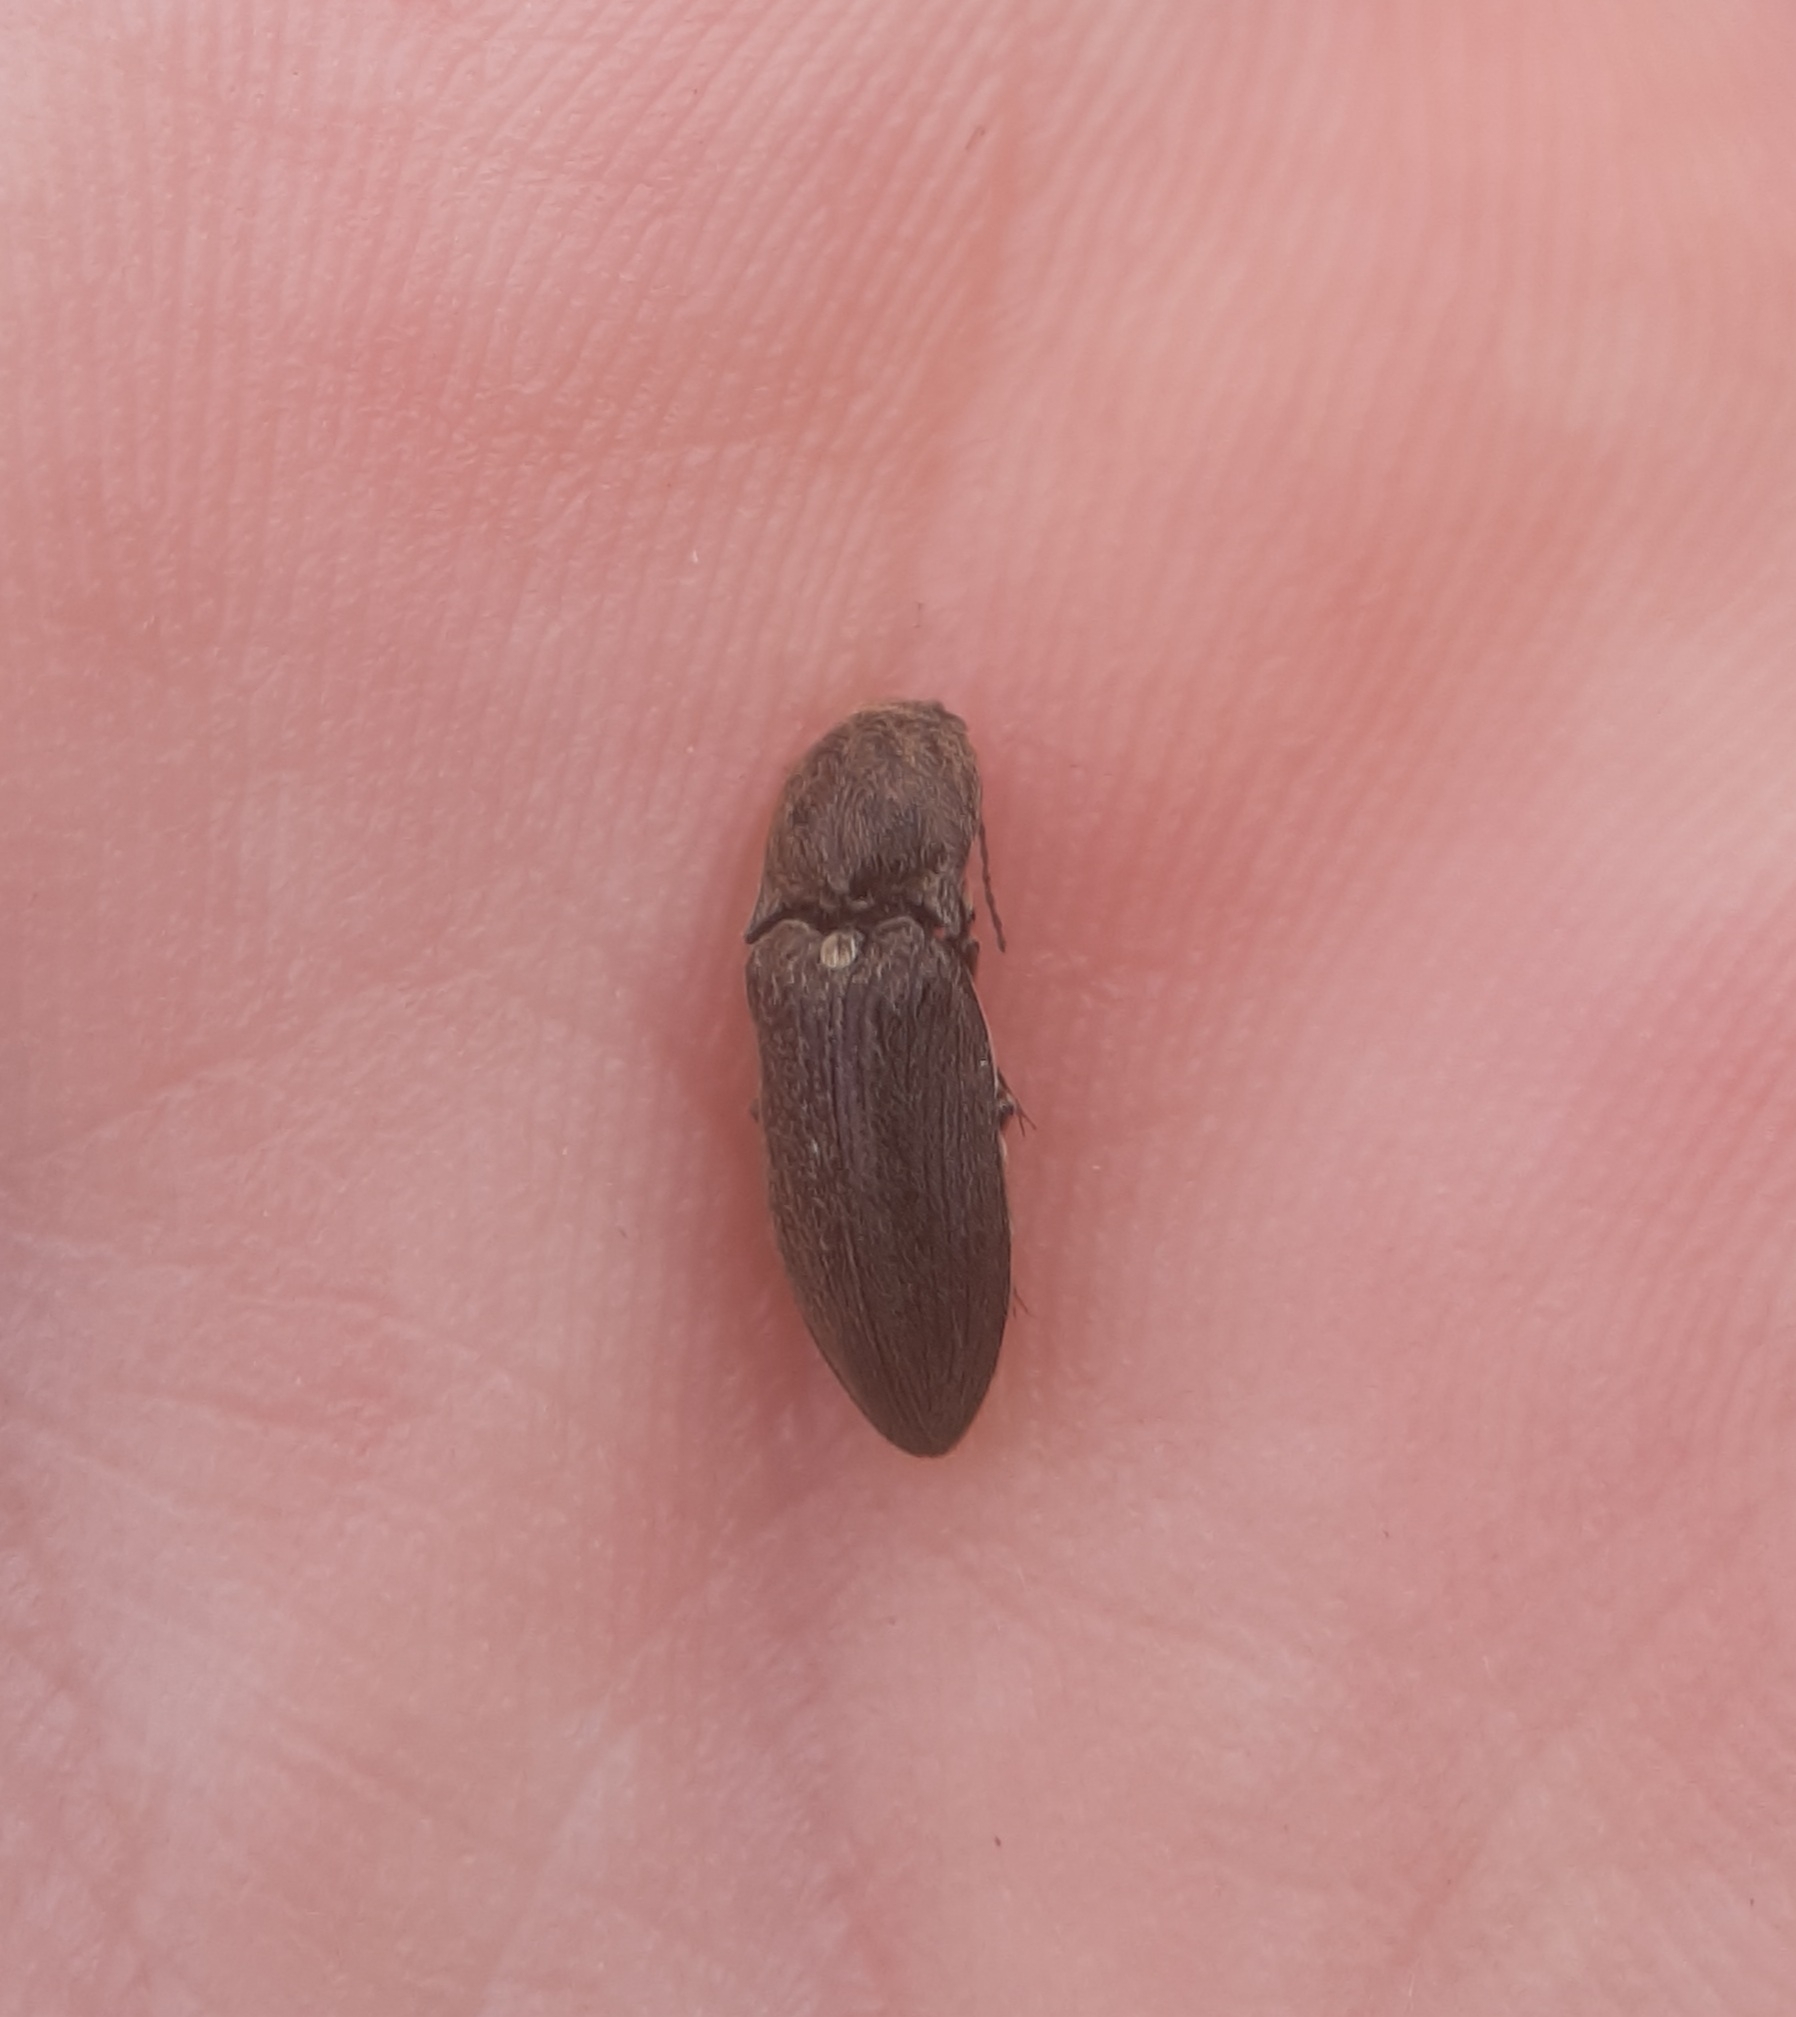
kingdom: Animalia
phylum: Arthropoda
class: Insecta
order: Coleoptera
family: Elateridae
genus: Hadromorphus
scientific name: Hadromorphus inflatus
